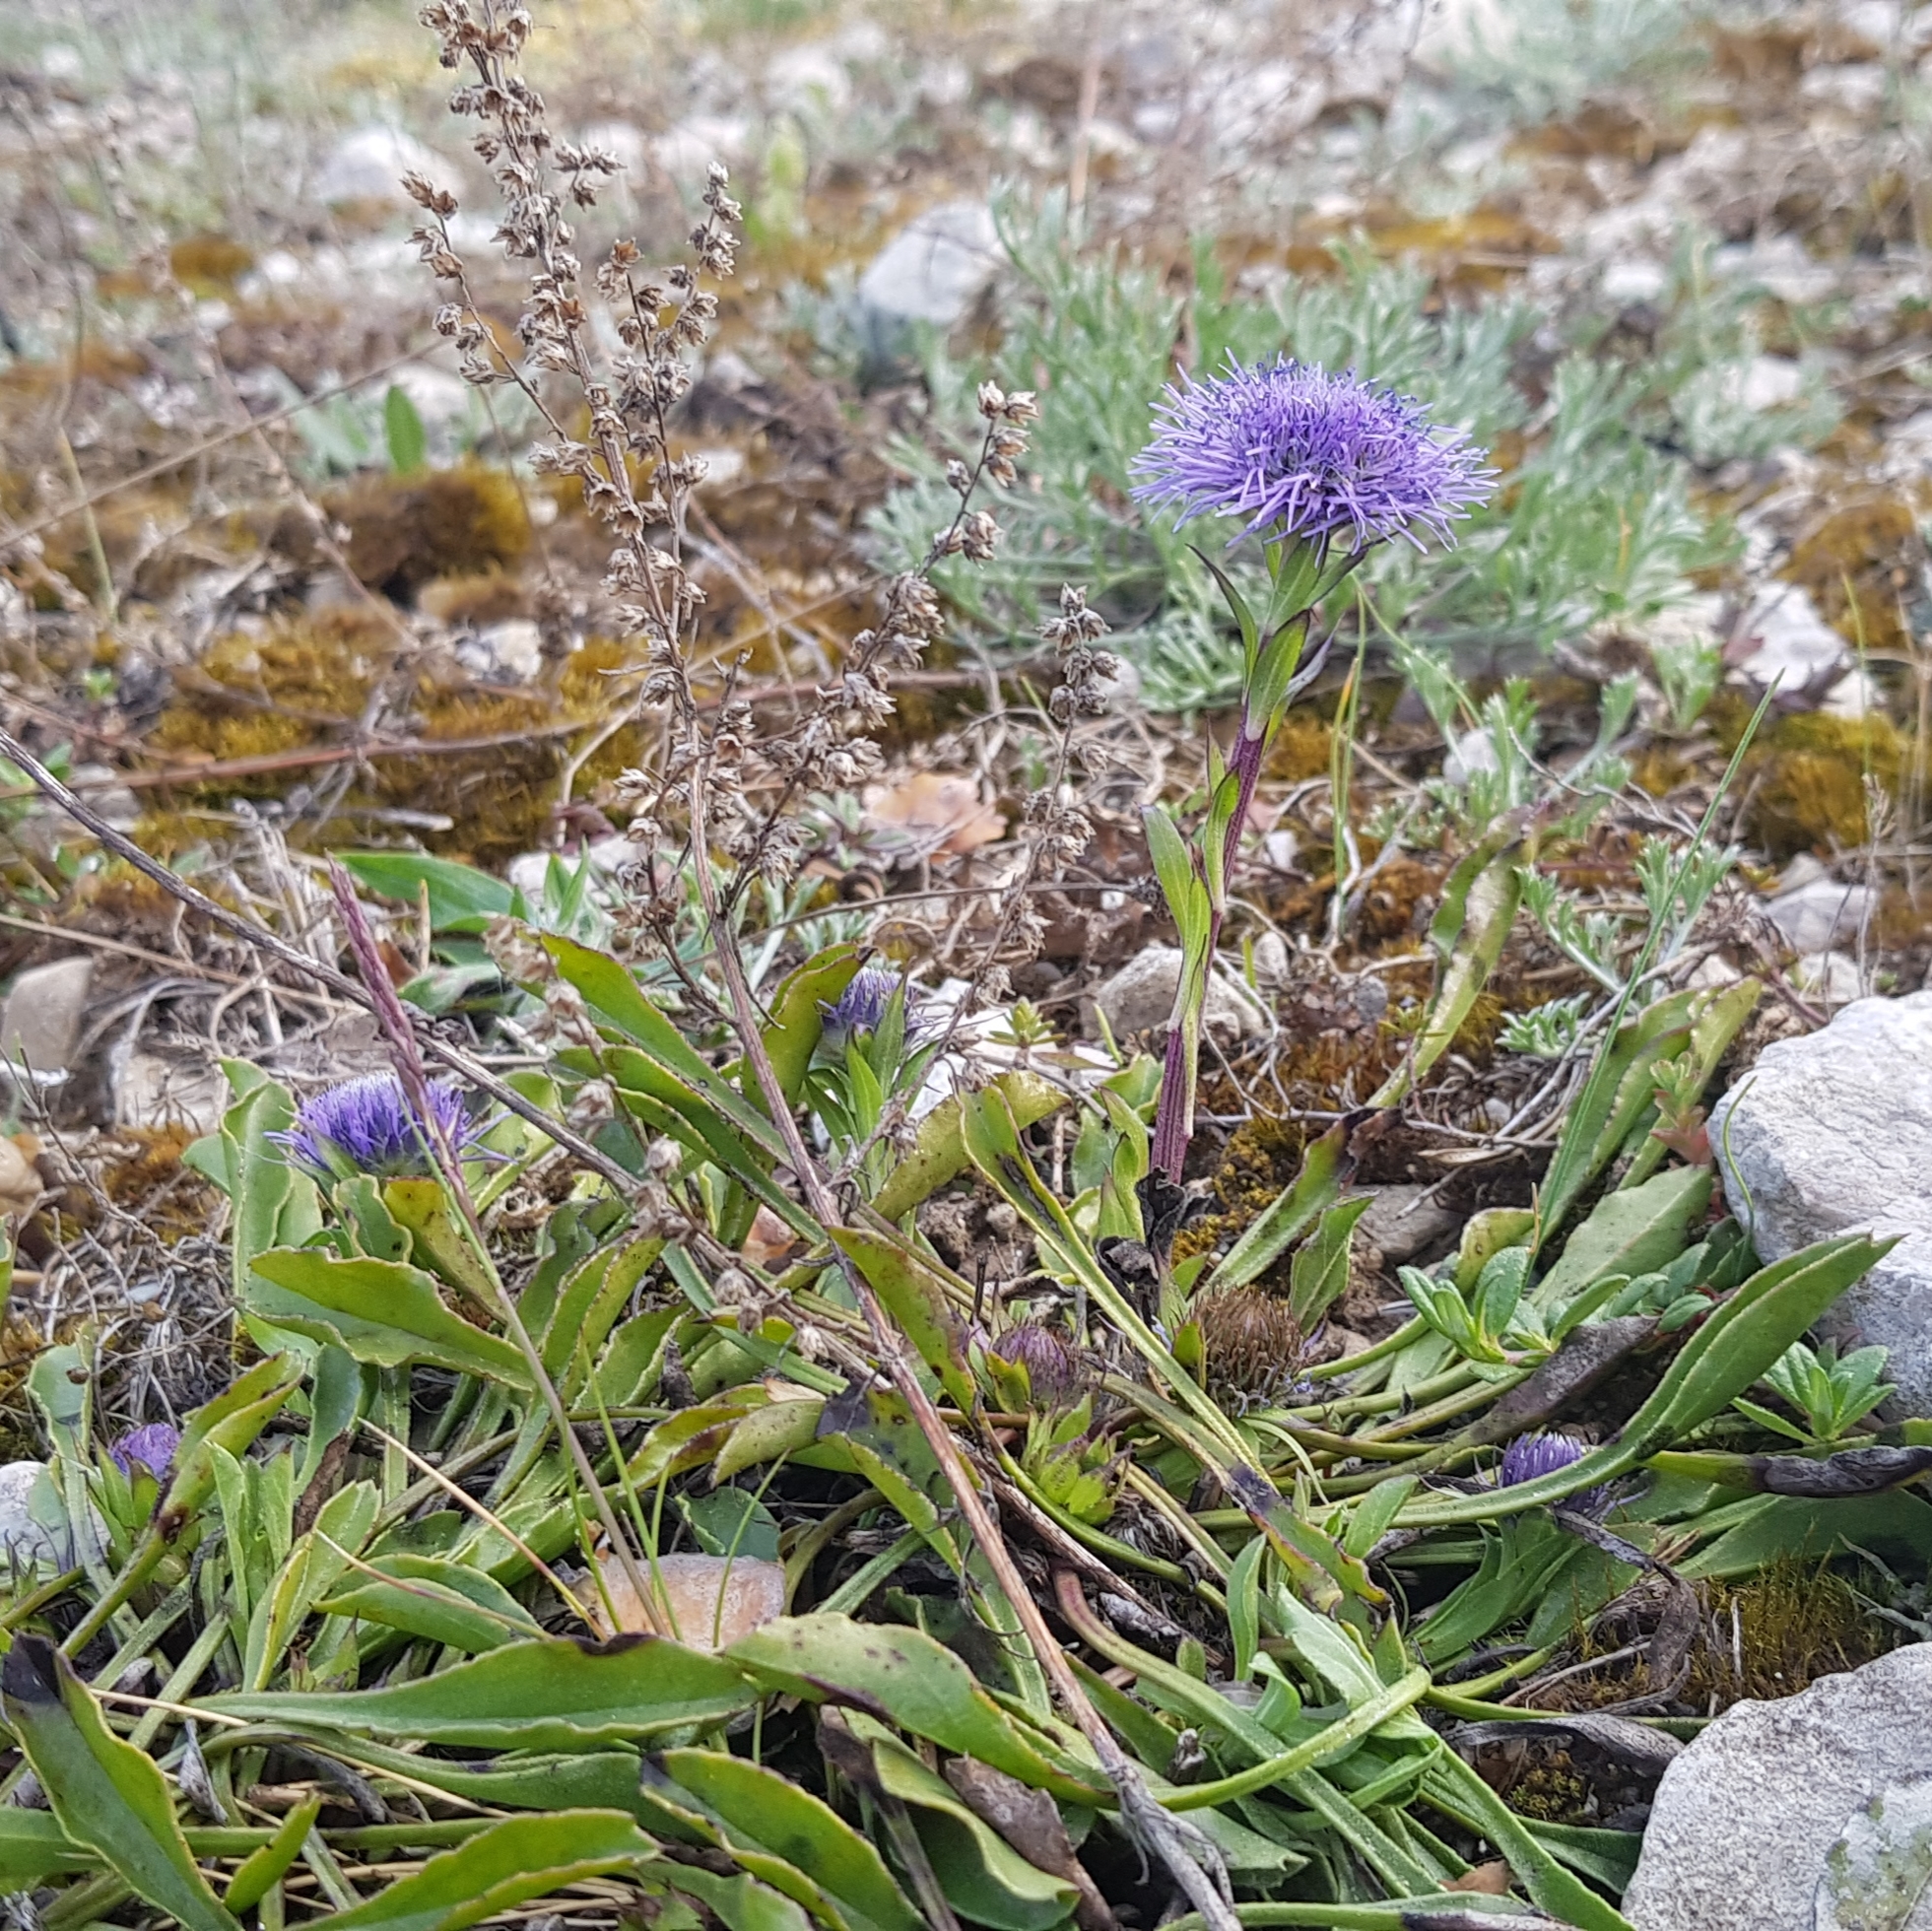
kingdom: Plantae
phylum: Tracheophyta
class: Magnoliopsida
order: Lamiales
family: Plantaginaceae
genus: Globularia
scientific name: Globularia vulgaris
